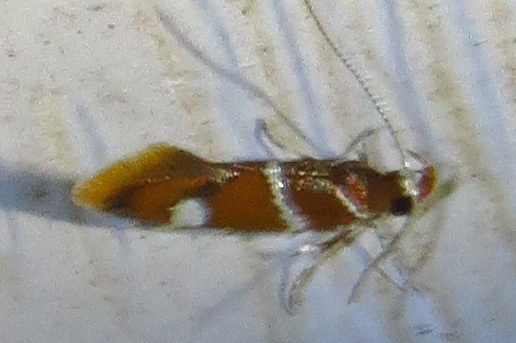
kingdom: Animalia
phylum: Arthropoda
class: Insecta
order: Lepidoptera
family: Oecophoridae
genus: Promalactis
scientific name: Promalactis suzukiella
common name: Moth
